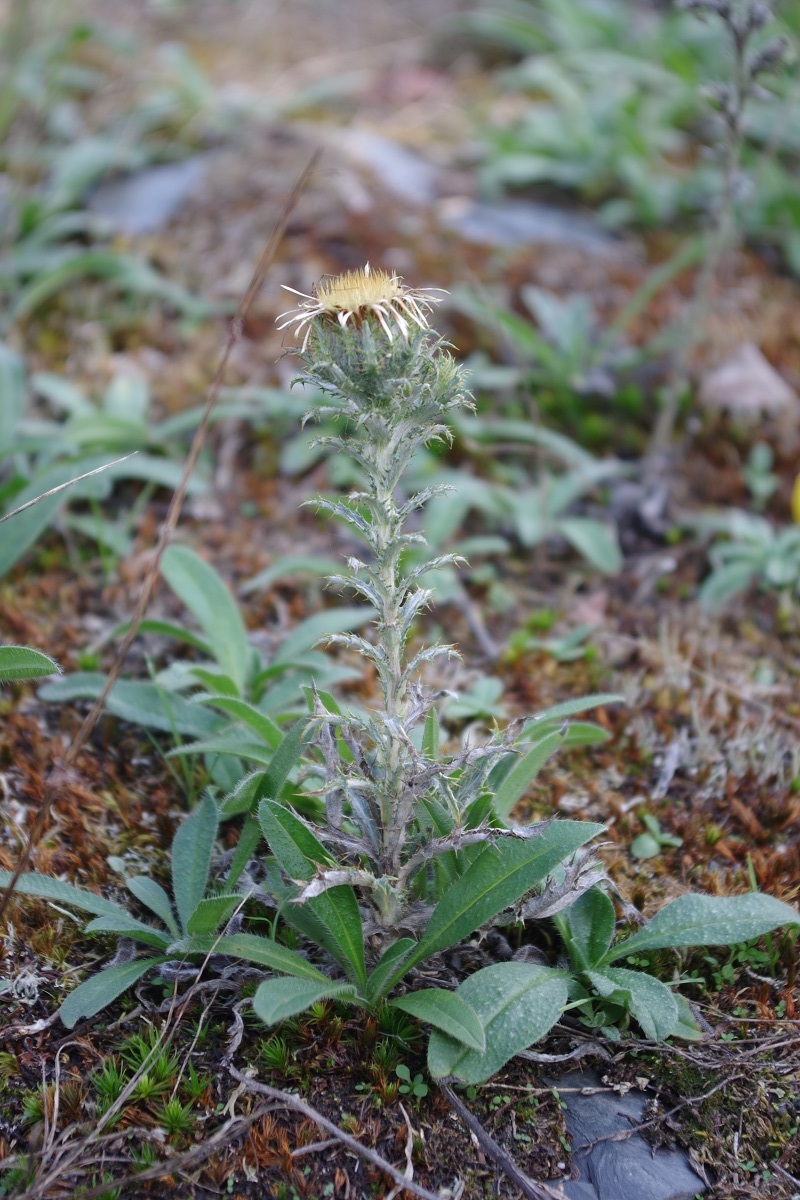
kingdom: Plantae
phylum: Tracheophyta
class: Magnoliopsida
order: Asterales
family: Asteraceae
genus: Carlina
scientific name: Carlina vulgaris
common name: Carline thistle
